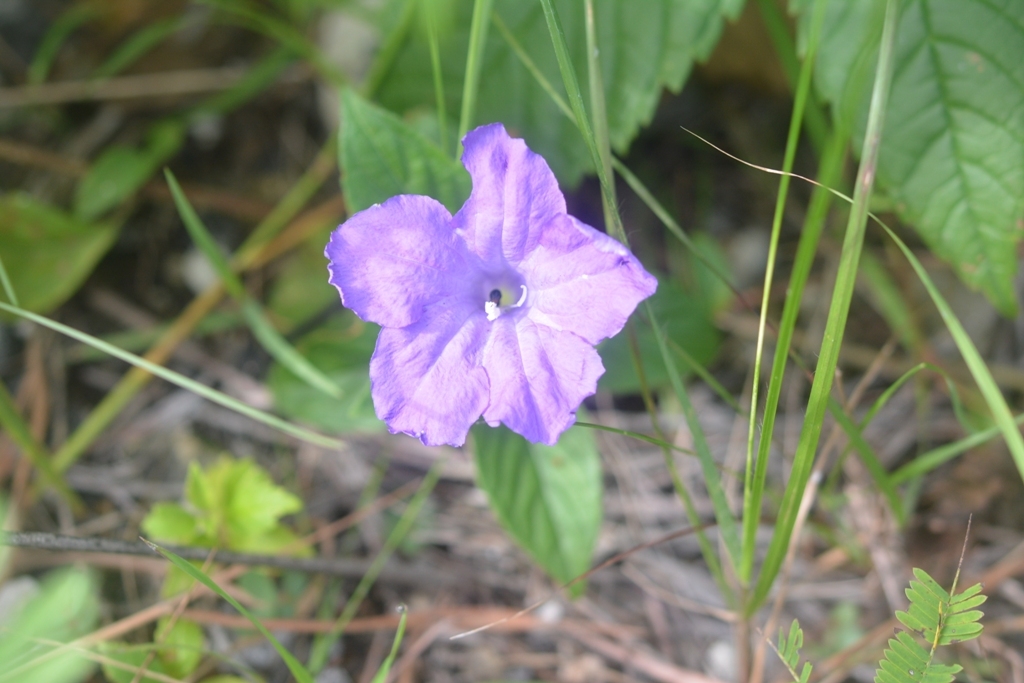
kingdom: Plantae
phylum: Tracheophyta
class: Magnoliopsida
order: Lamiales
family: Acanthaceae
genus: Ruellia
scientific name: Ruellia lactea
